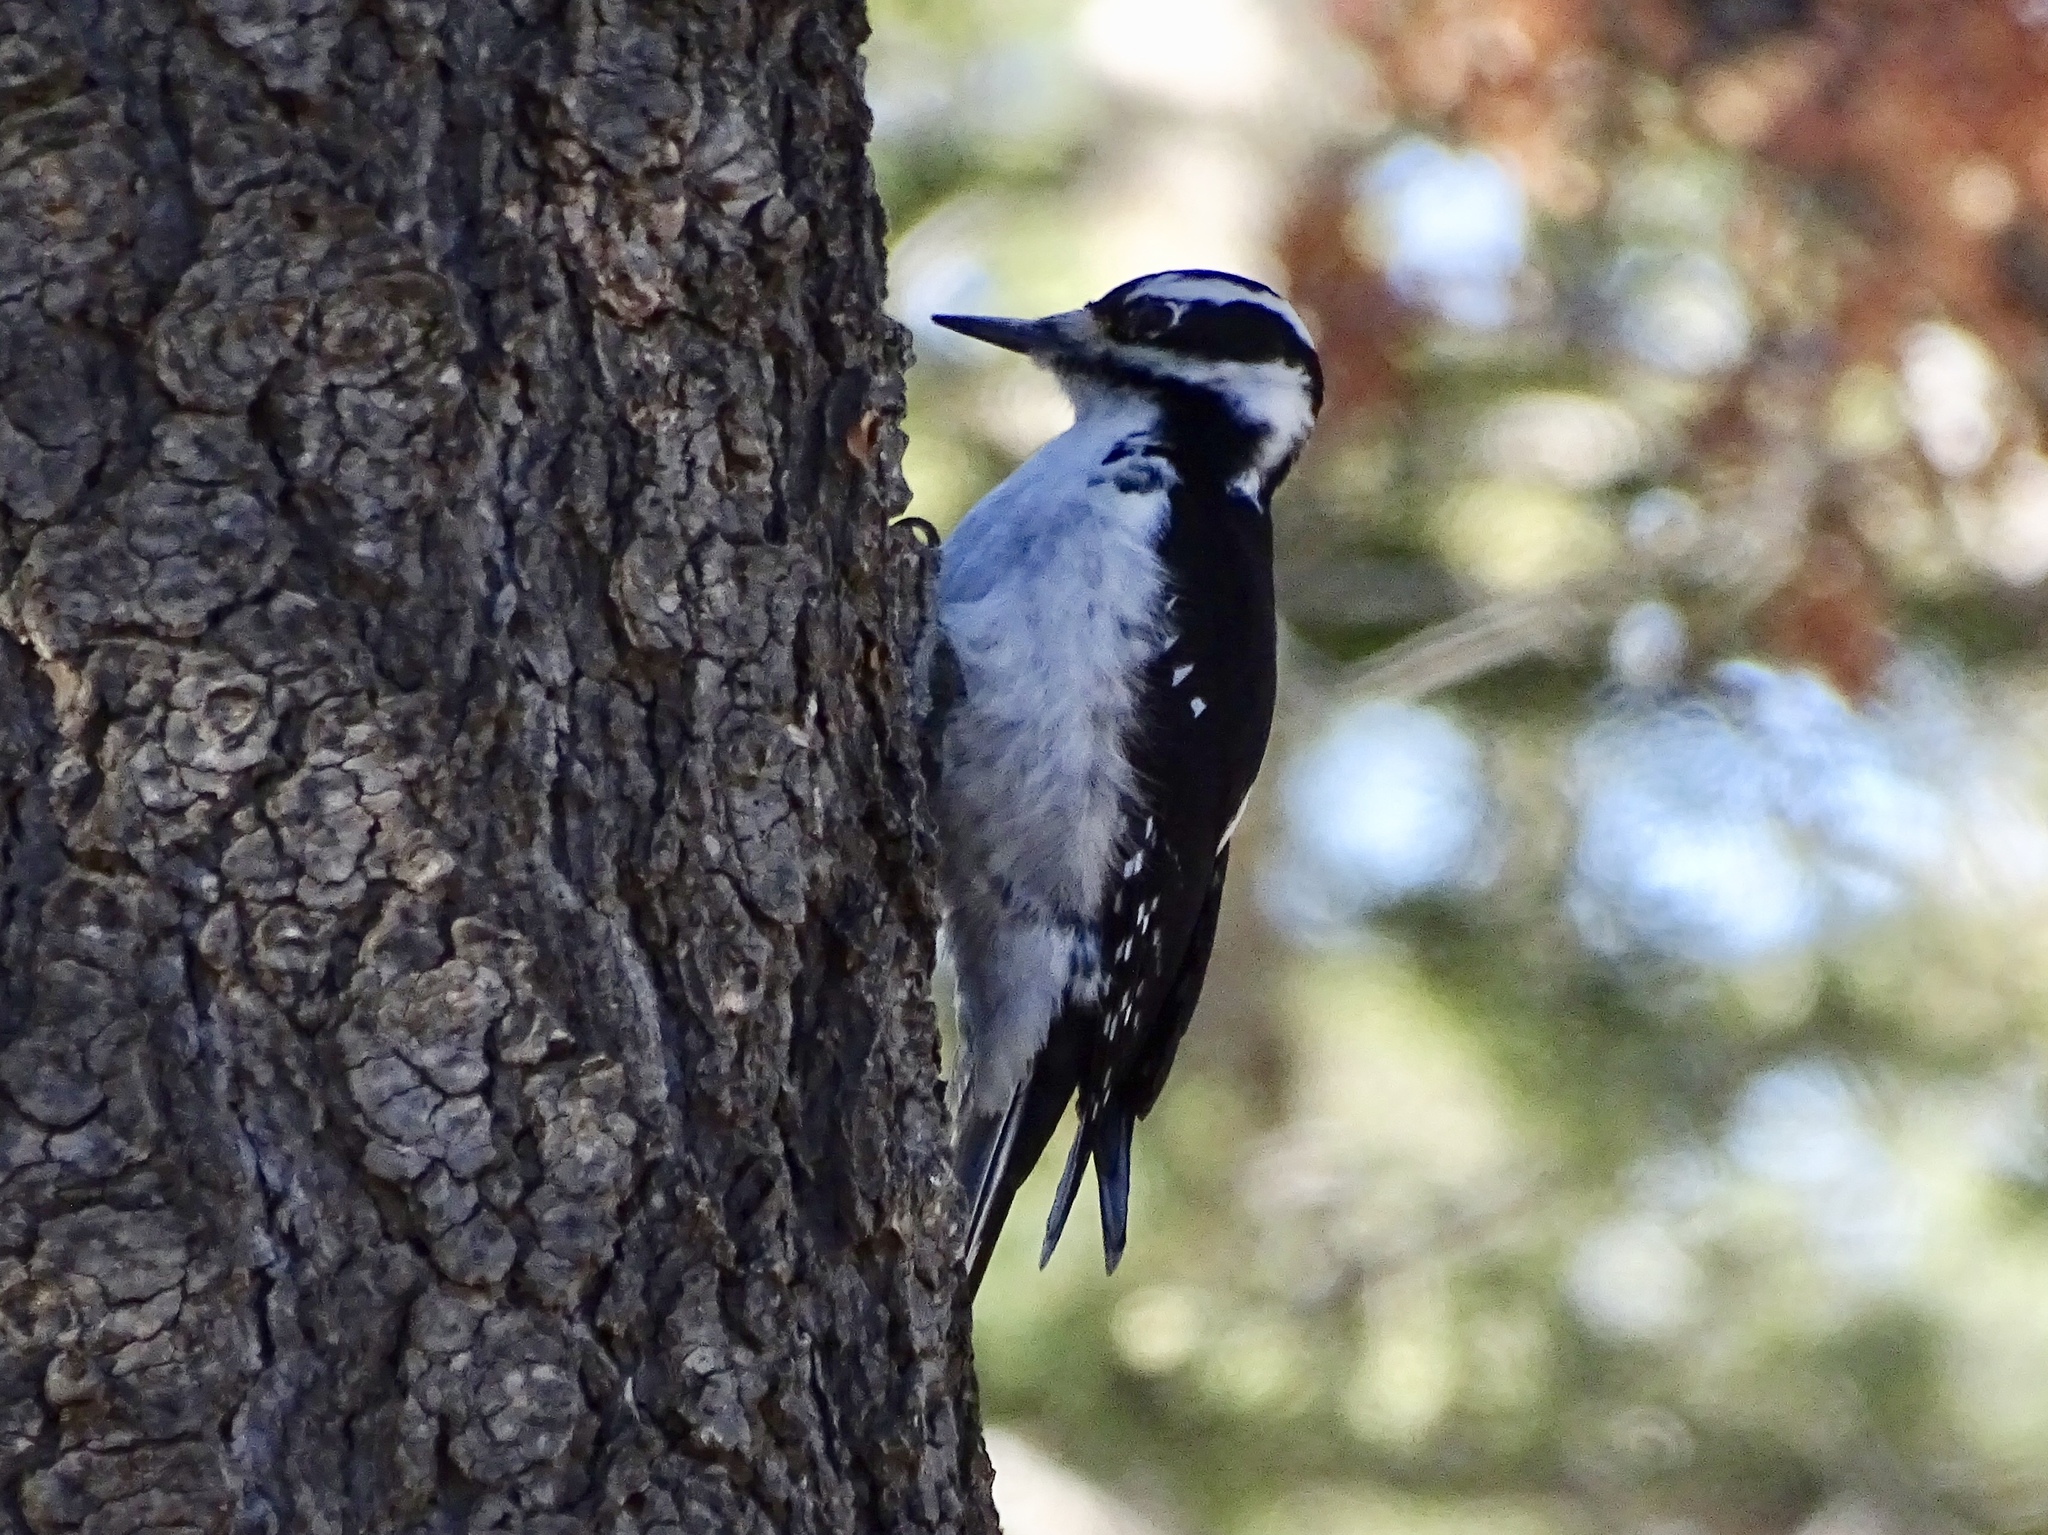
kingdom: Animalia
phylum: Chordata
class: Aves
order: Piciformes
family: Picidae
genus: Leuconotopicus
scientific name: Leuconotopicus villosus
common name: Hairy woodpecker
